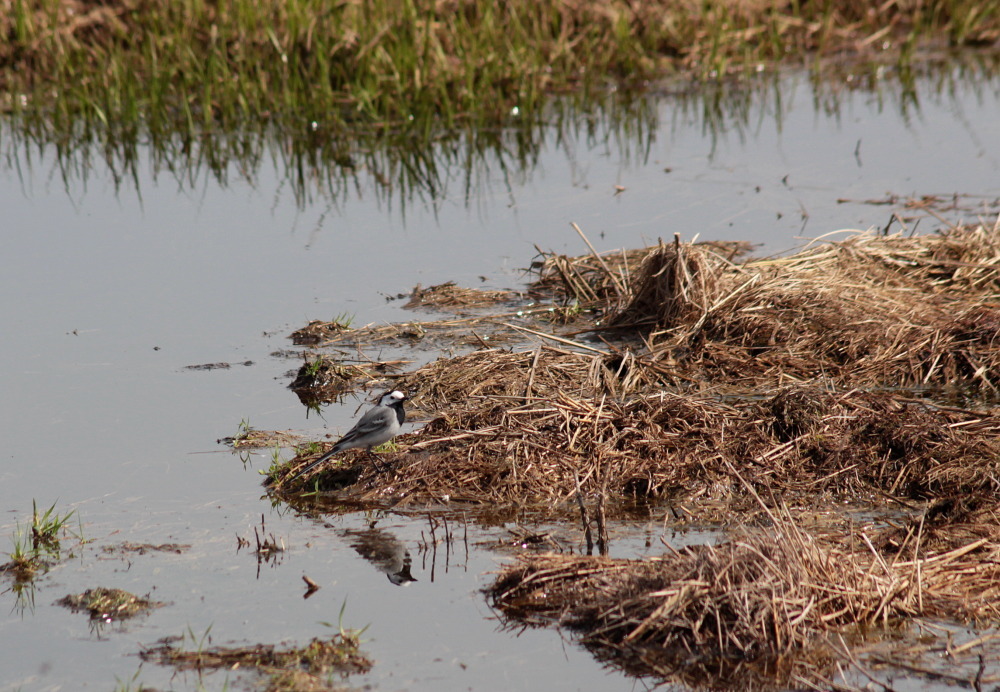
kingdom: Animalia
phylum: Chordata
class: Aves
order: Passeriformes
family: Motacillidae
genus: Motacilla
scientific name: Motacilla alba
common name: White wagtail
